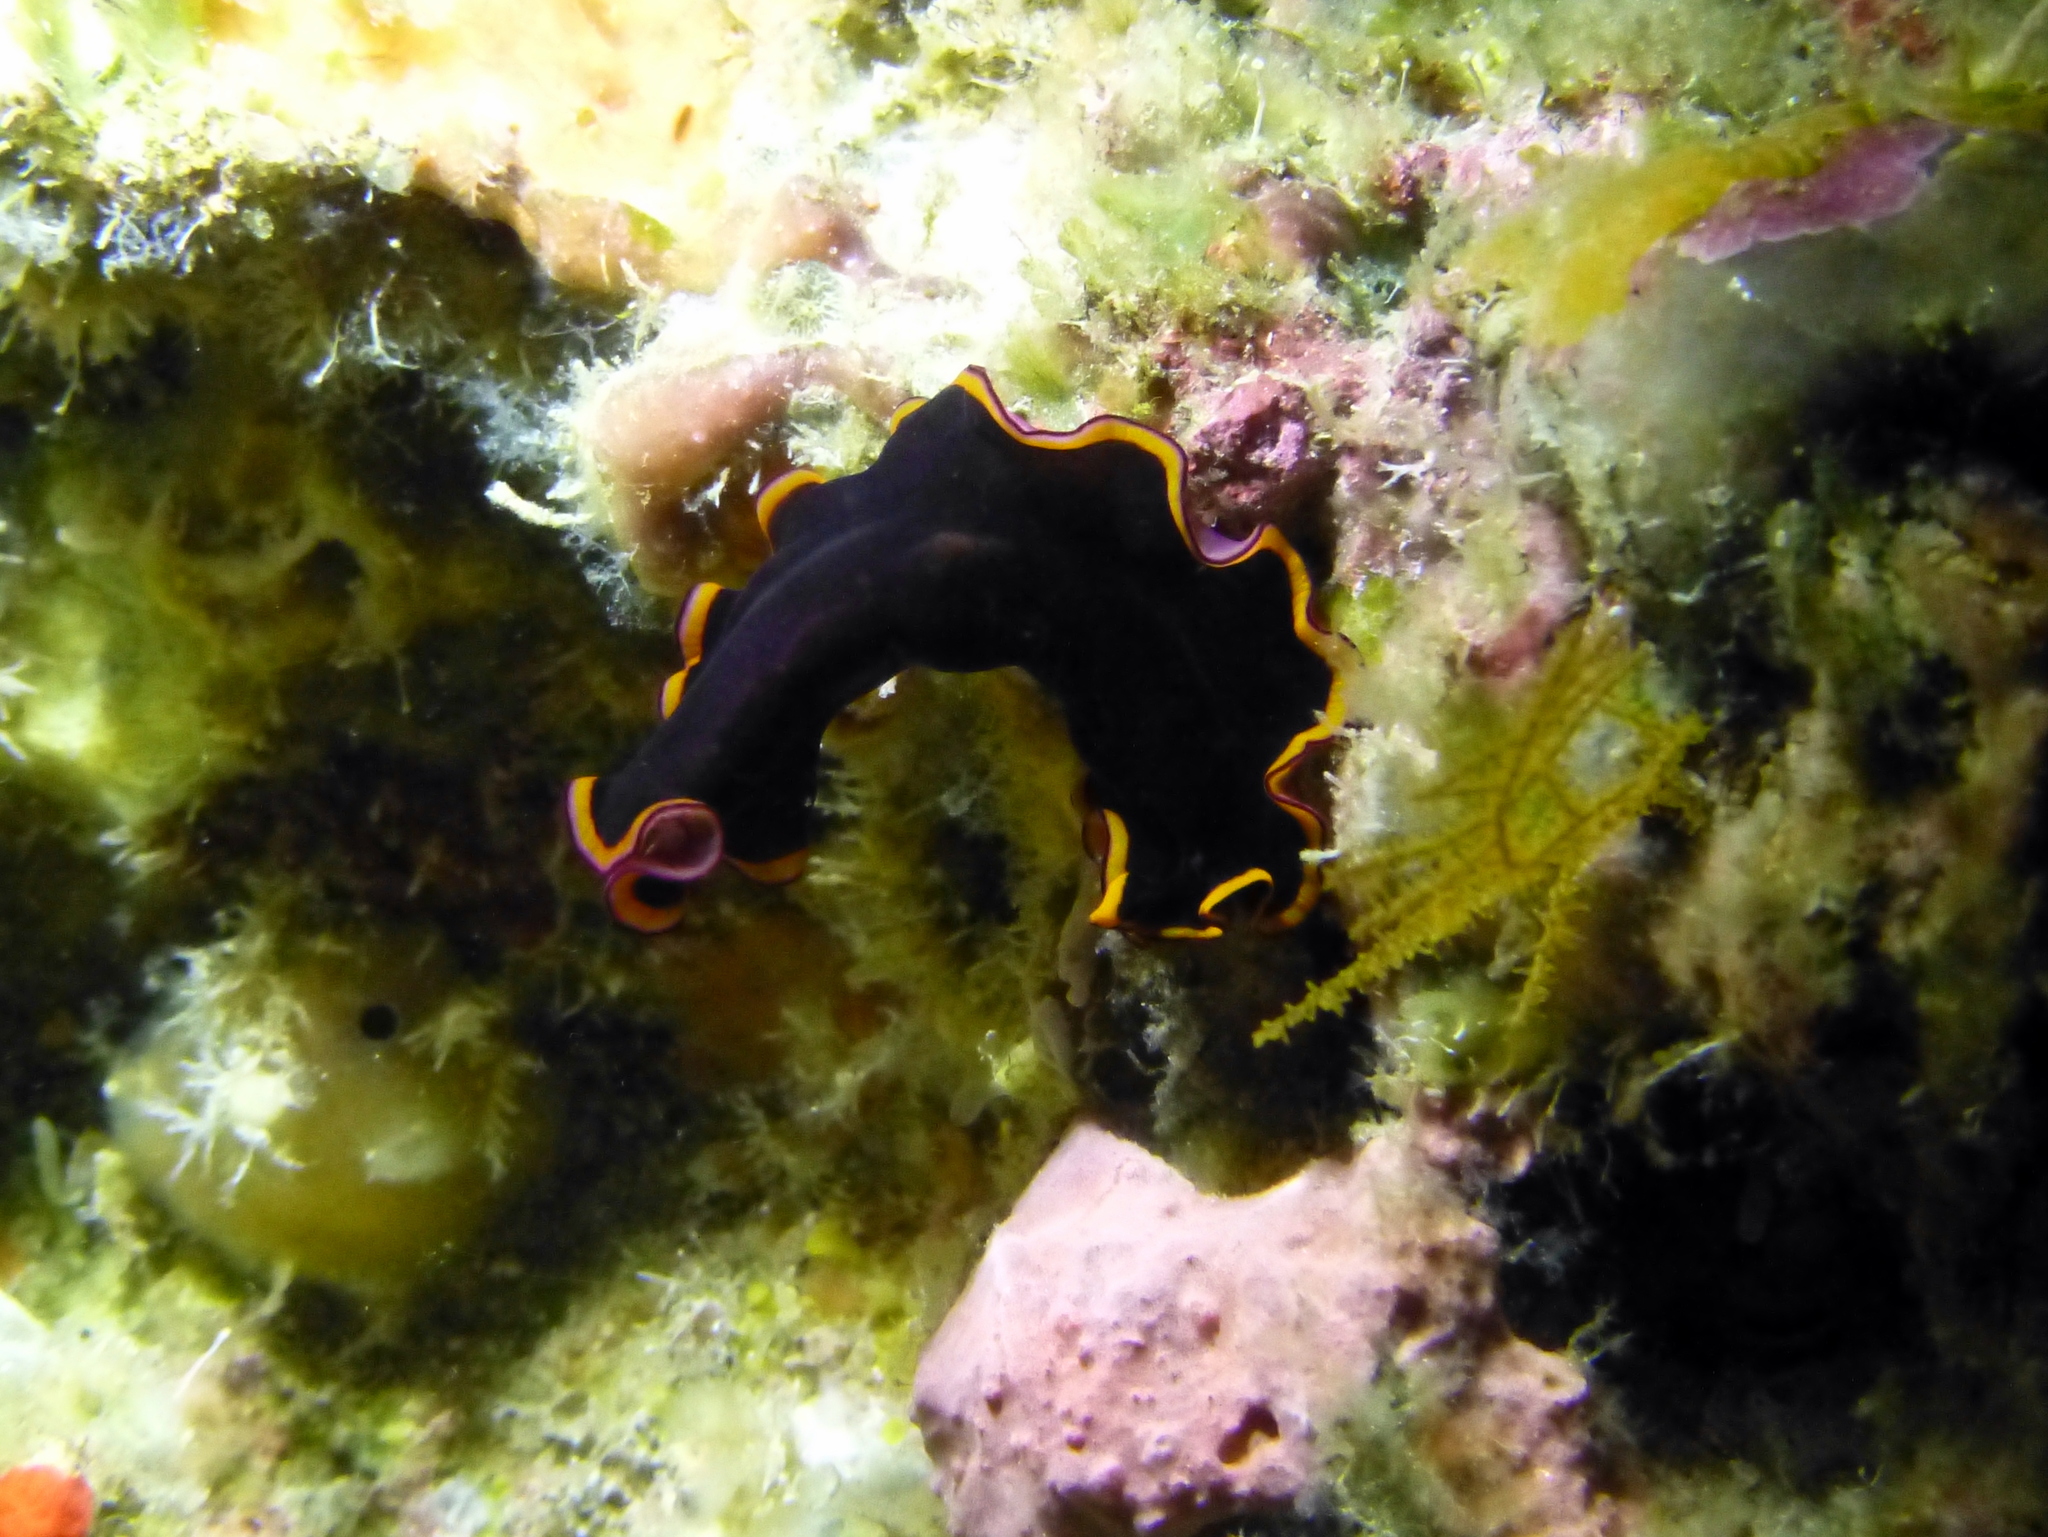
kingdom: Animalia
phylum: Platyhelminthes
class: Turbellaria
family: Pseudocerotidae
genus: Pseudobiceros
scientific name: Pseudobiceros gloriosus
